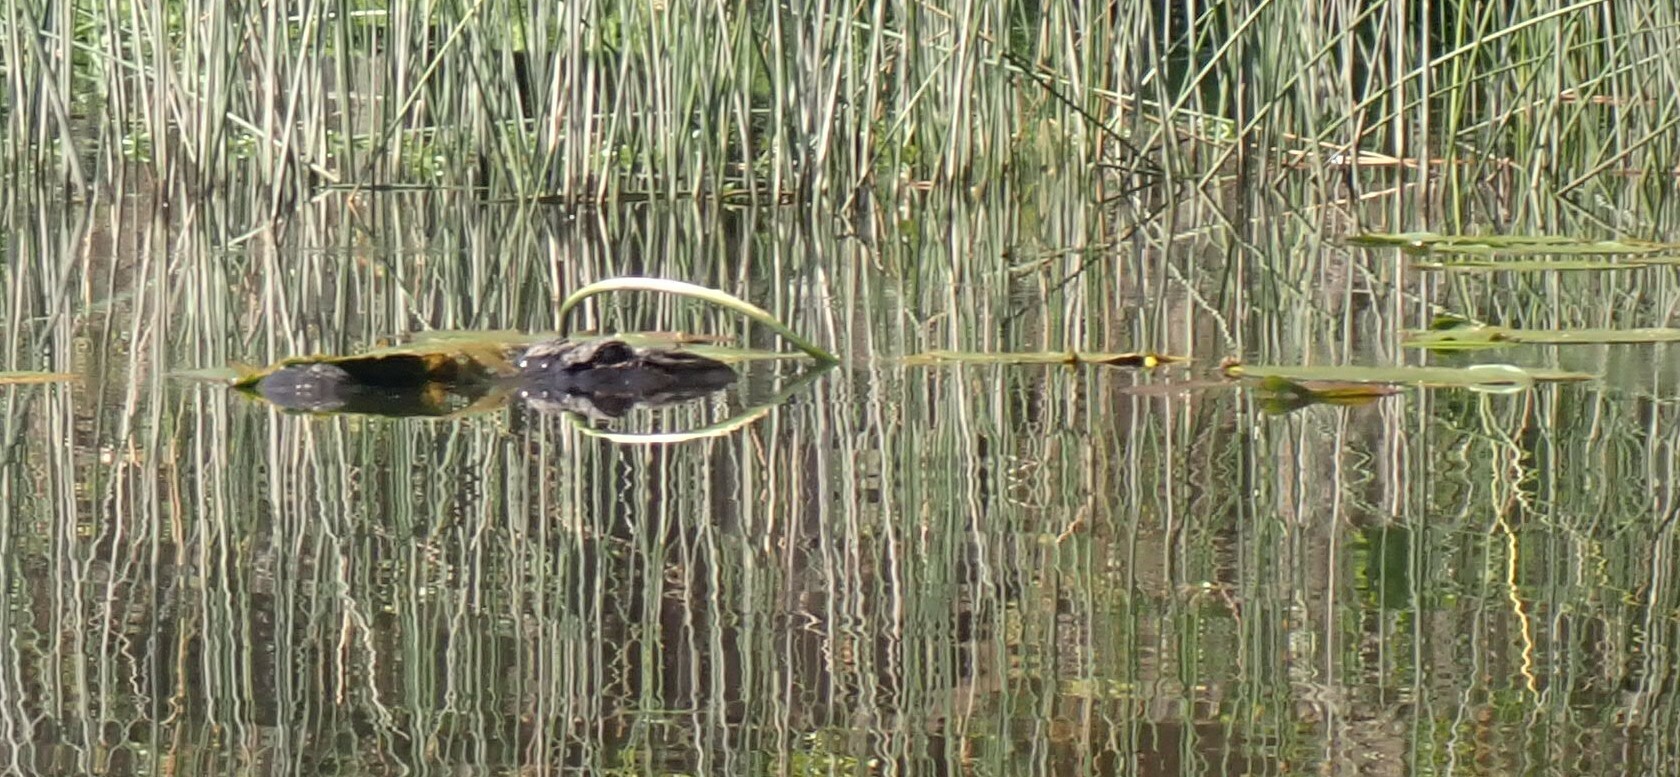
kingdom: Animalia
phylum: Chordata
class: Crocodylia
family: Alligatoridae
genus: Alligator
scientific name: Alligator mississippiensis
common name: American alligator
